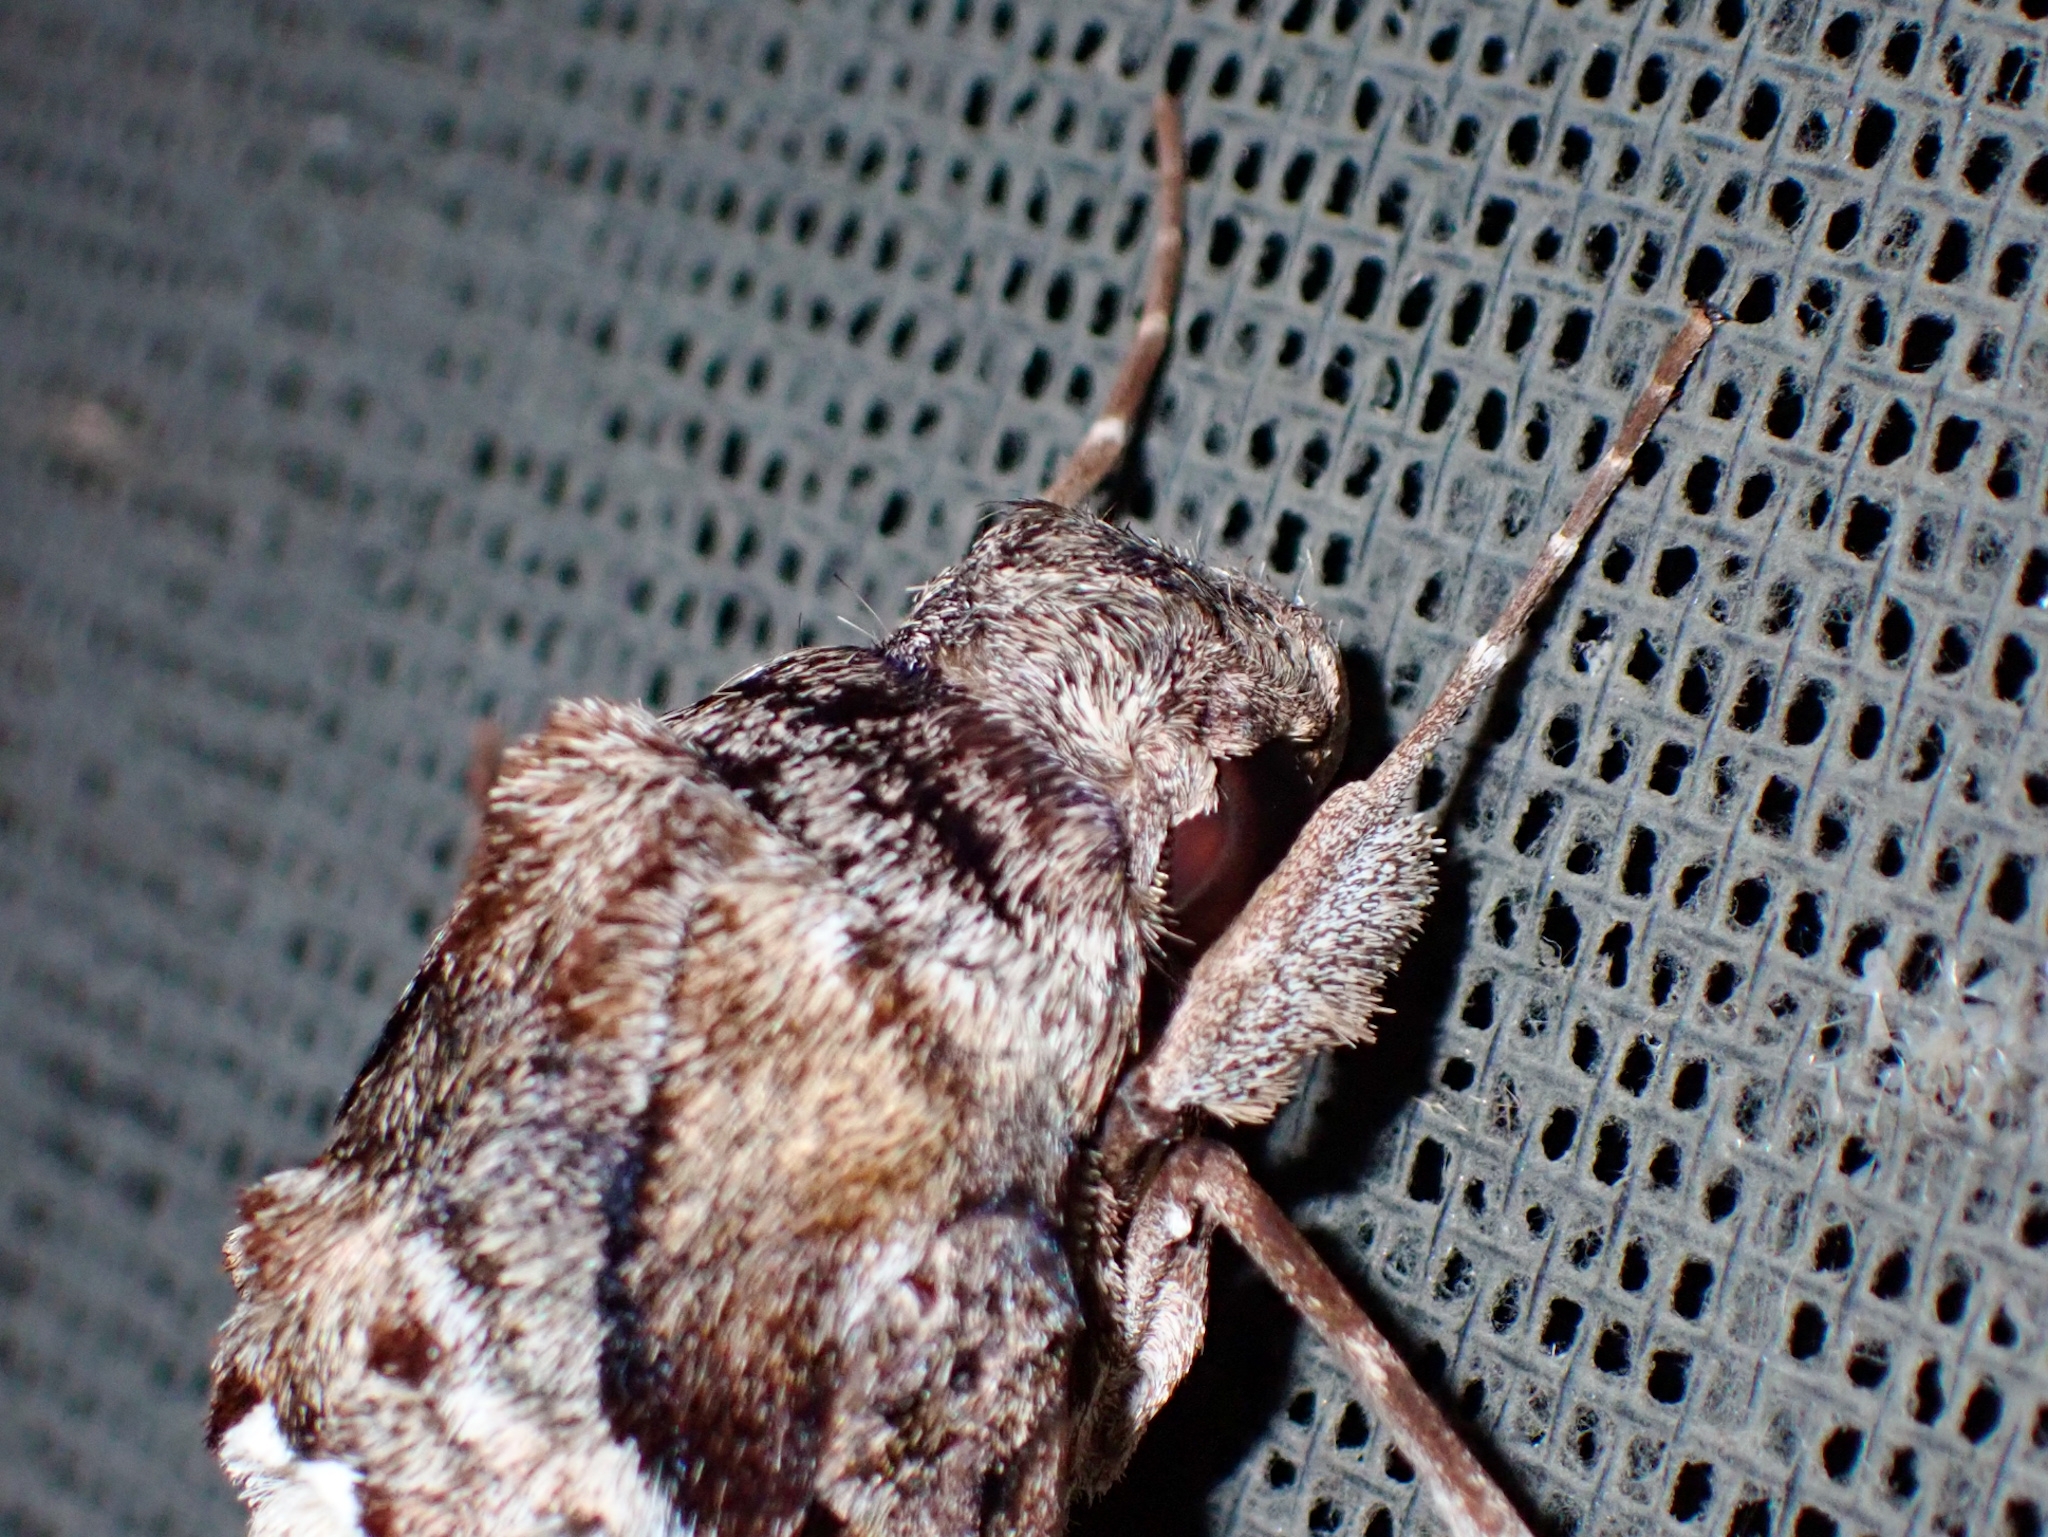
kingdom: Animalia
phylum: Arthropoda
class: Insecta
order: Lepidoptera
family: Sphingidae
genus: Pseudosphinx
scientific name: Pseudosphinx tetrio
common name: Tetrio sphinx
